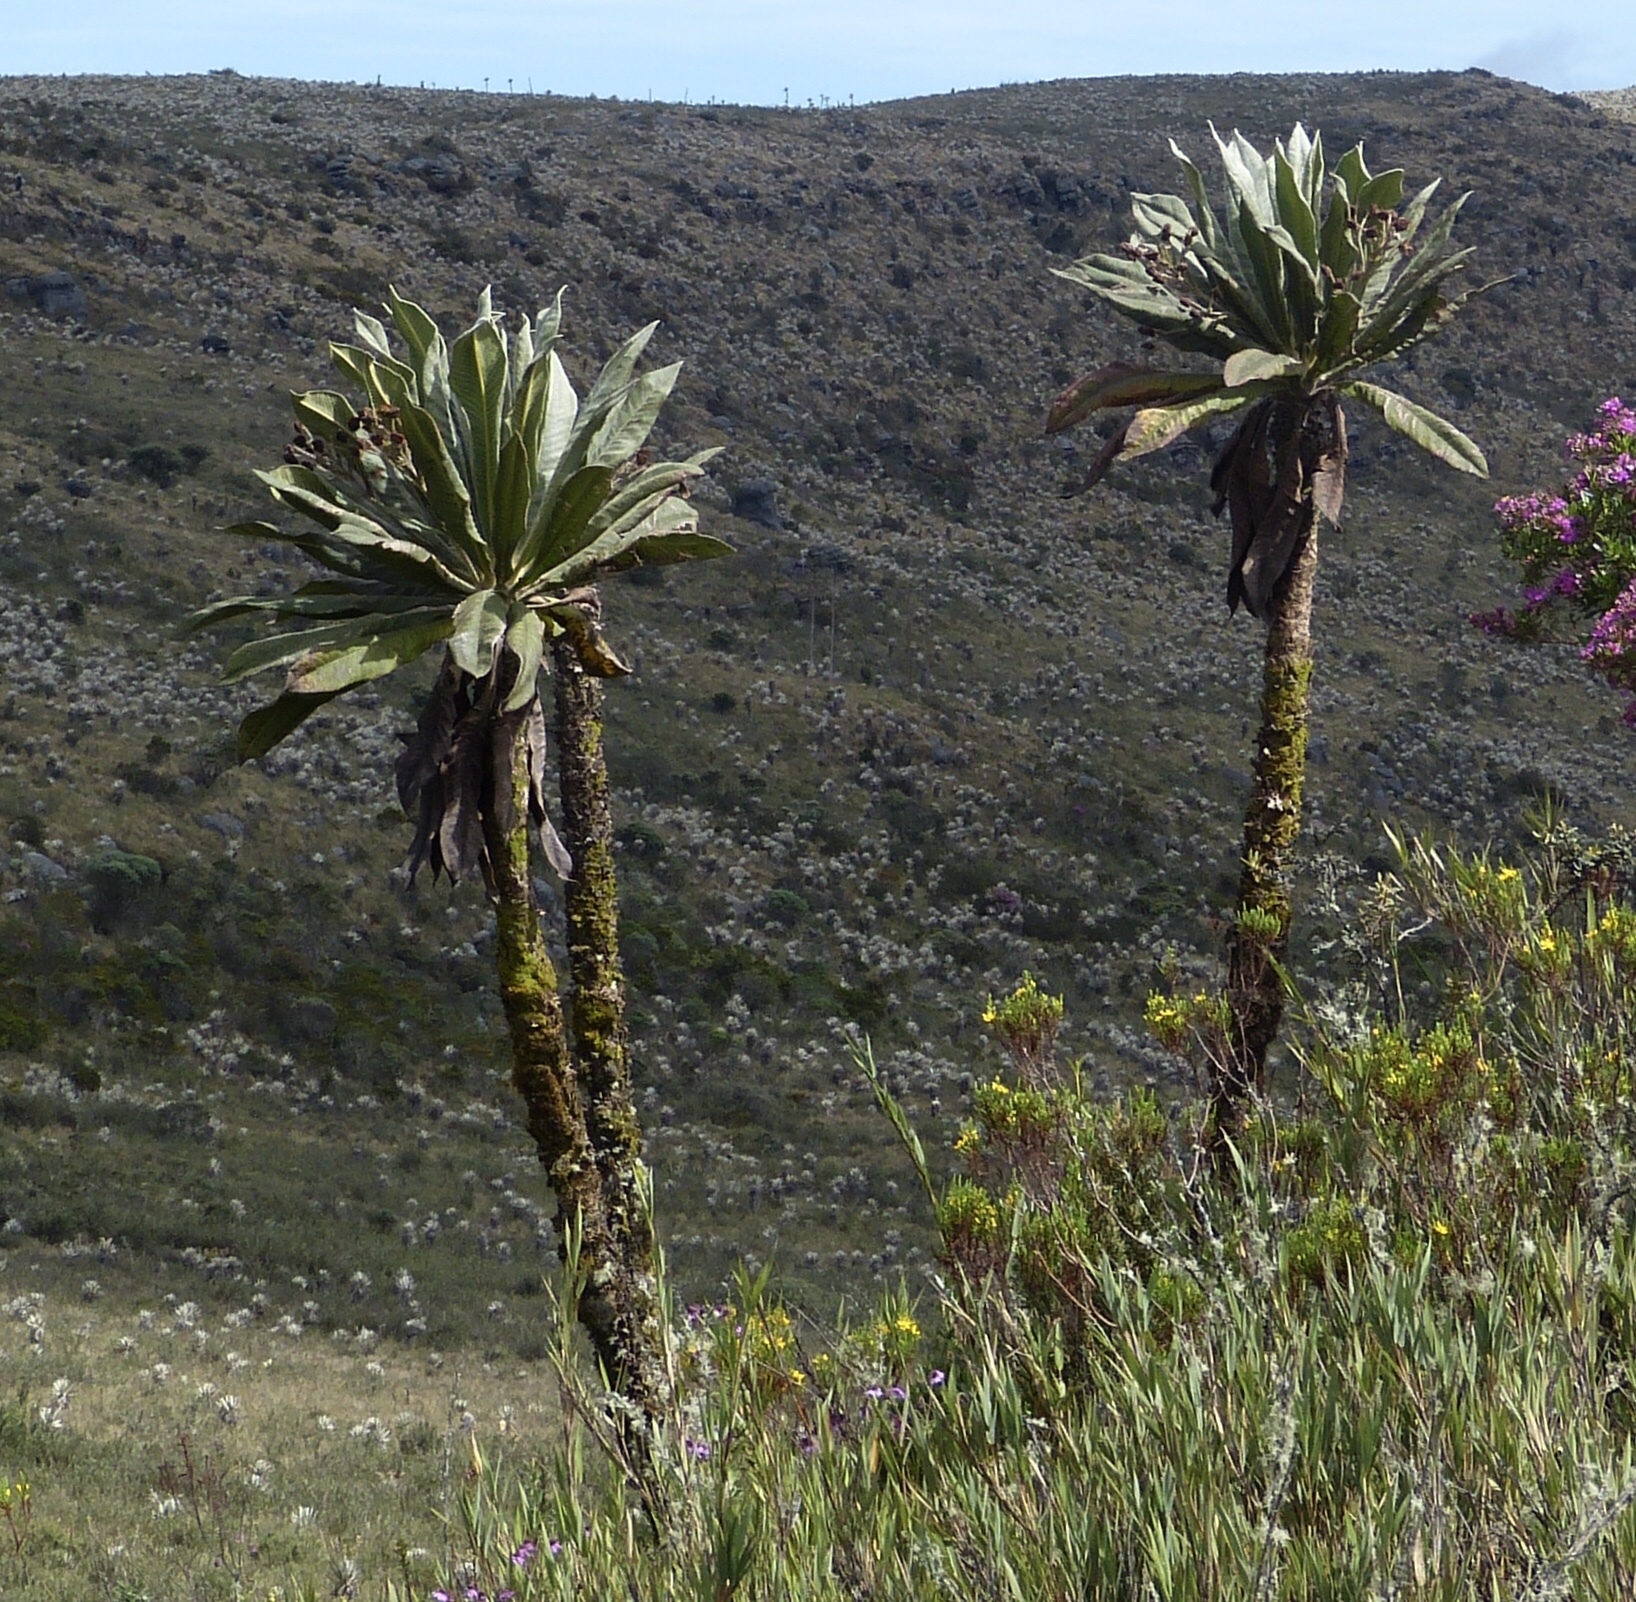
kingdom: Plantae
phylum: Tracheophyta
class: Magnoliopsida
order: Asterales
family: Asteraceae
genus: Espeletia
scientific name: Espeletia uribei
